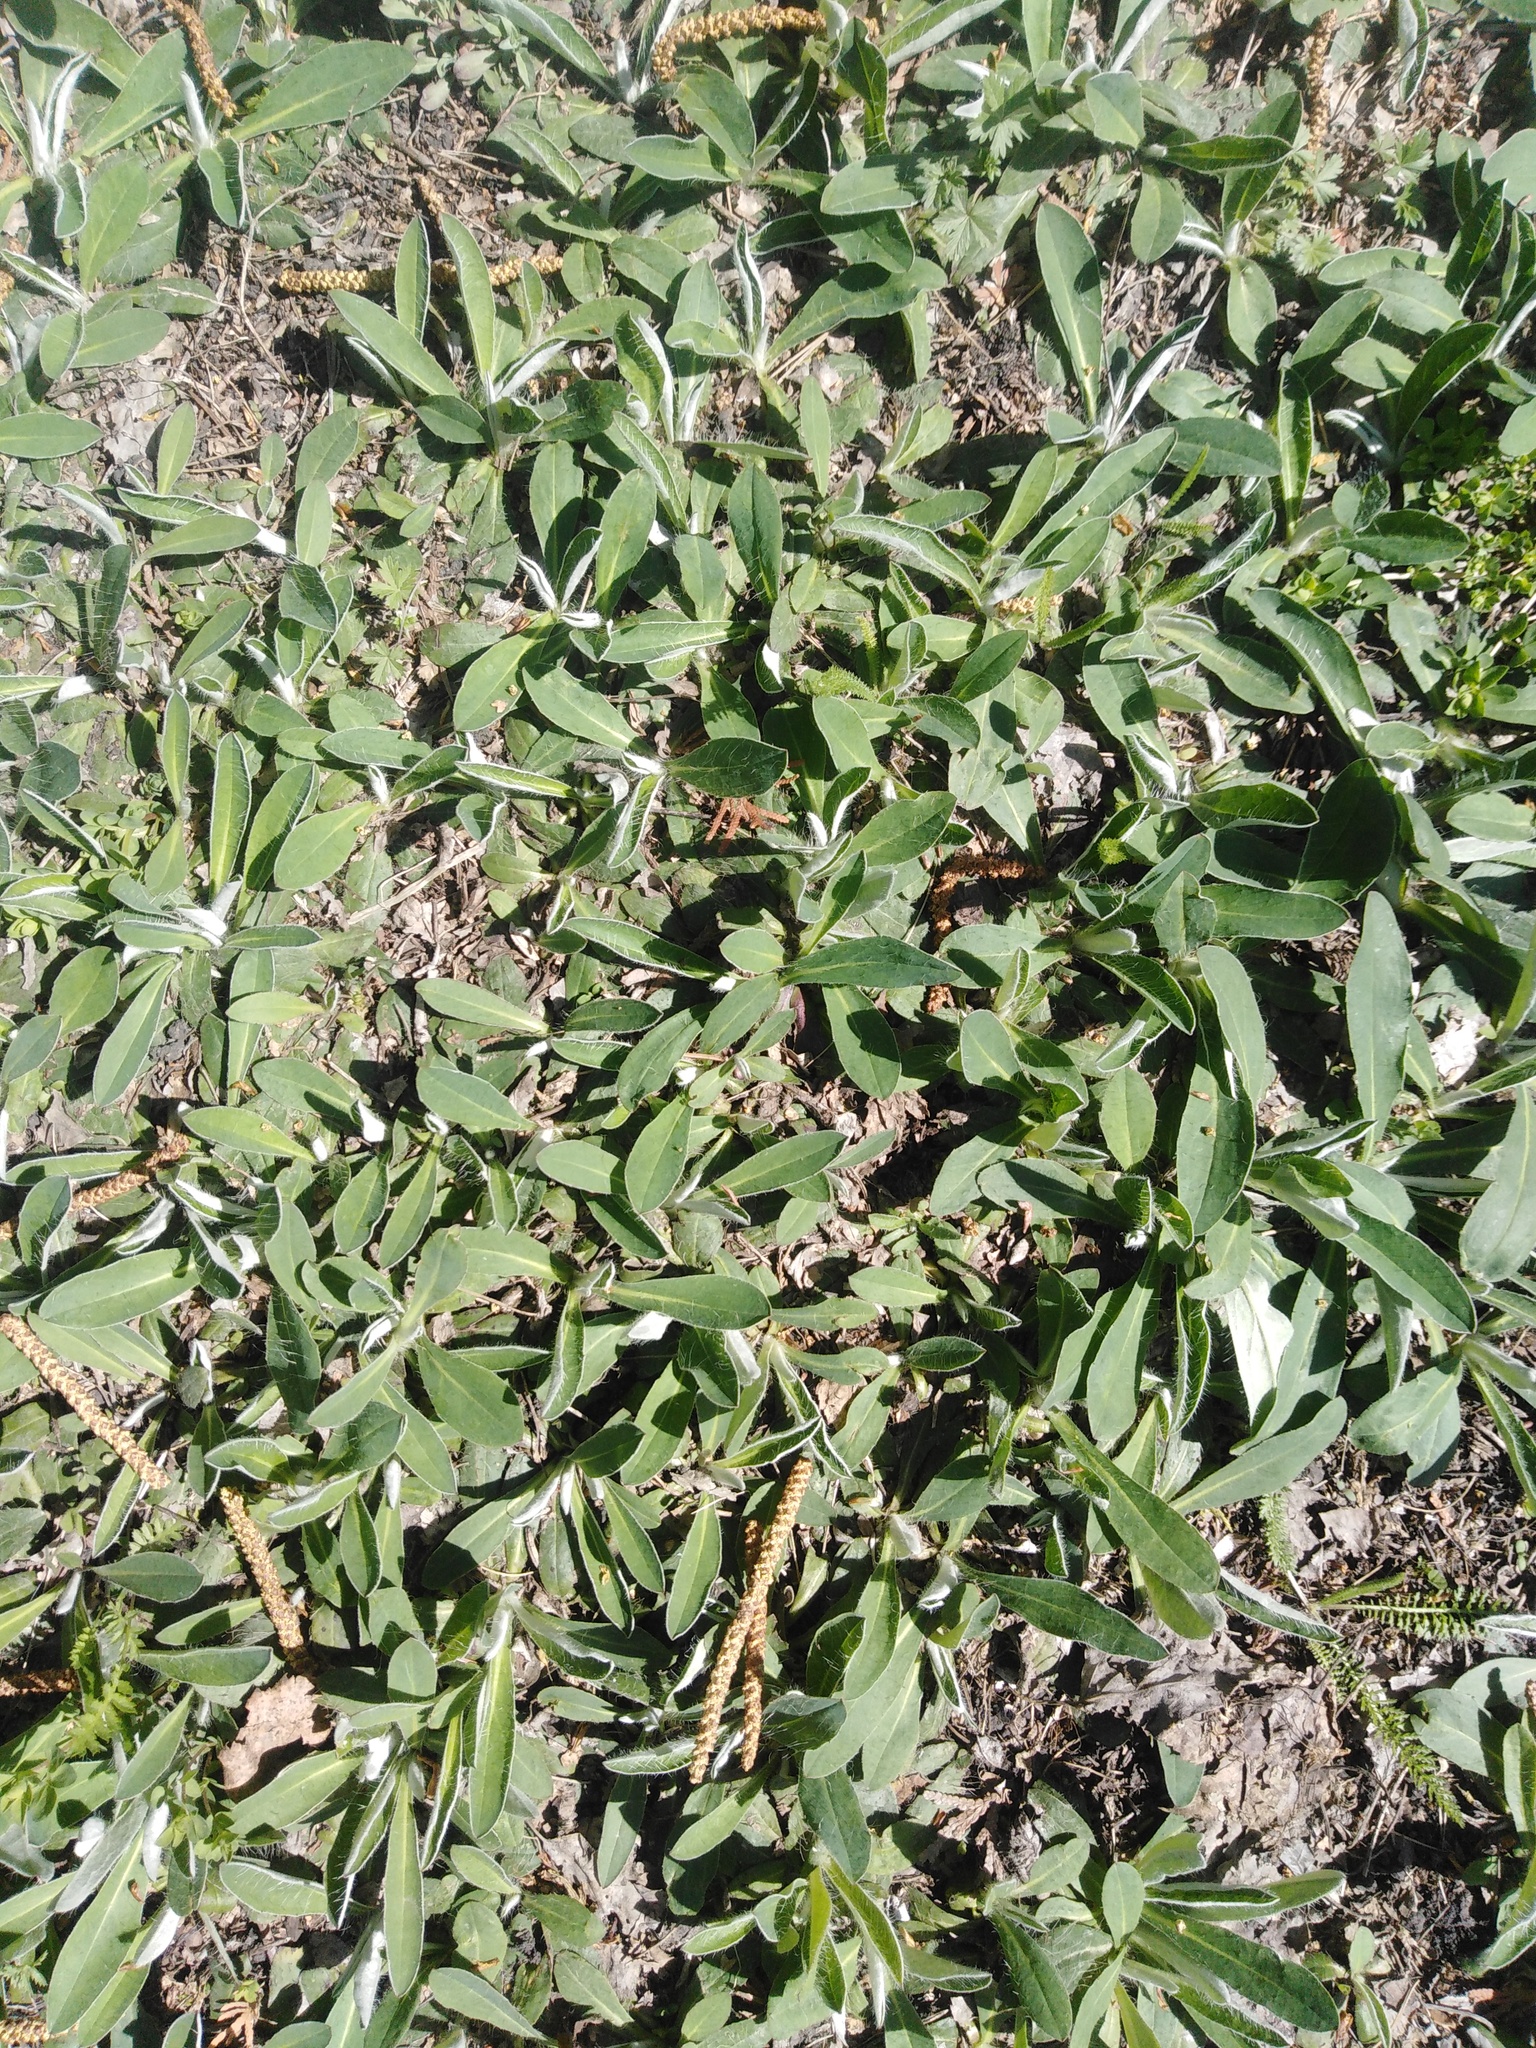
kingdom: Plantae
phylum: Tracheophyta
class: Magnoliopsida
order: Asterales
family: Asteraceae
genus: Pilosella
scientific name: Pilosella officinarum
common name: Mouse-ear hawkweed
